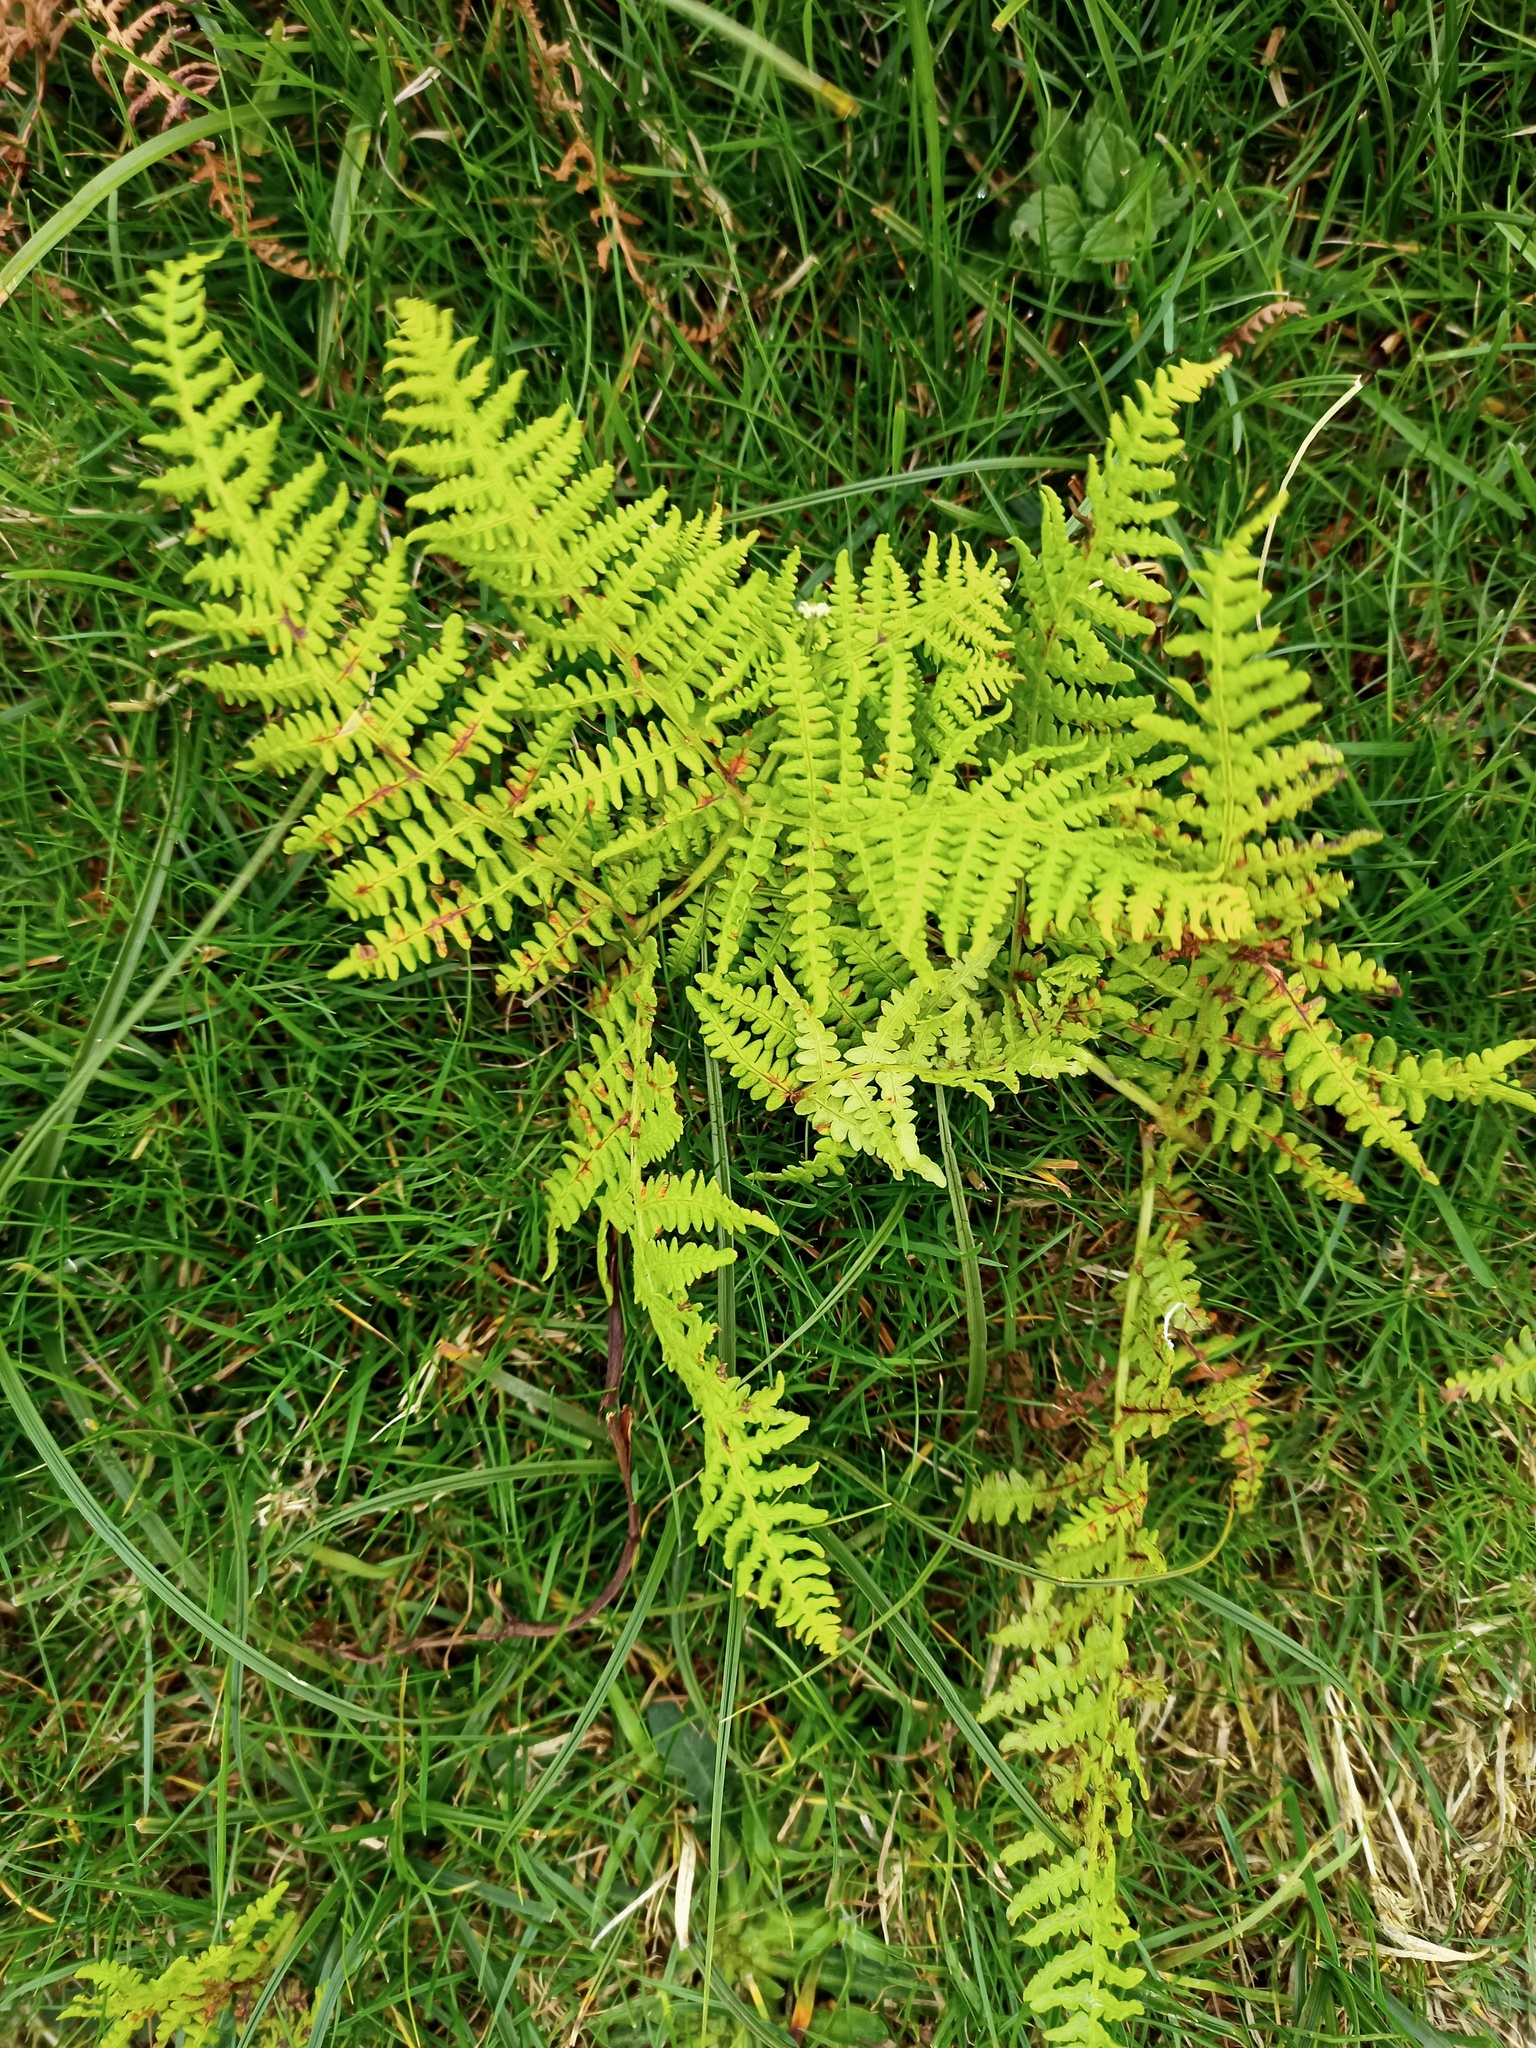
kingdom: Plantae
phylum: Tracheophyta
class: Polypodiopsida
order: Polypodiales
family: Dennstaedtiaceae
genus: Pteridium
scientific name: Pteridium aquilinum
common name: Bracken
